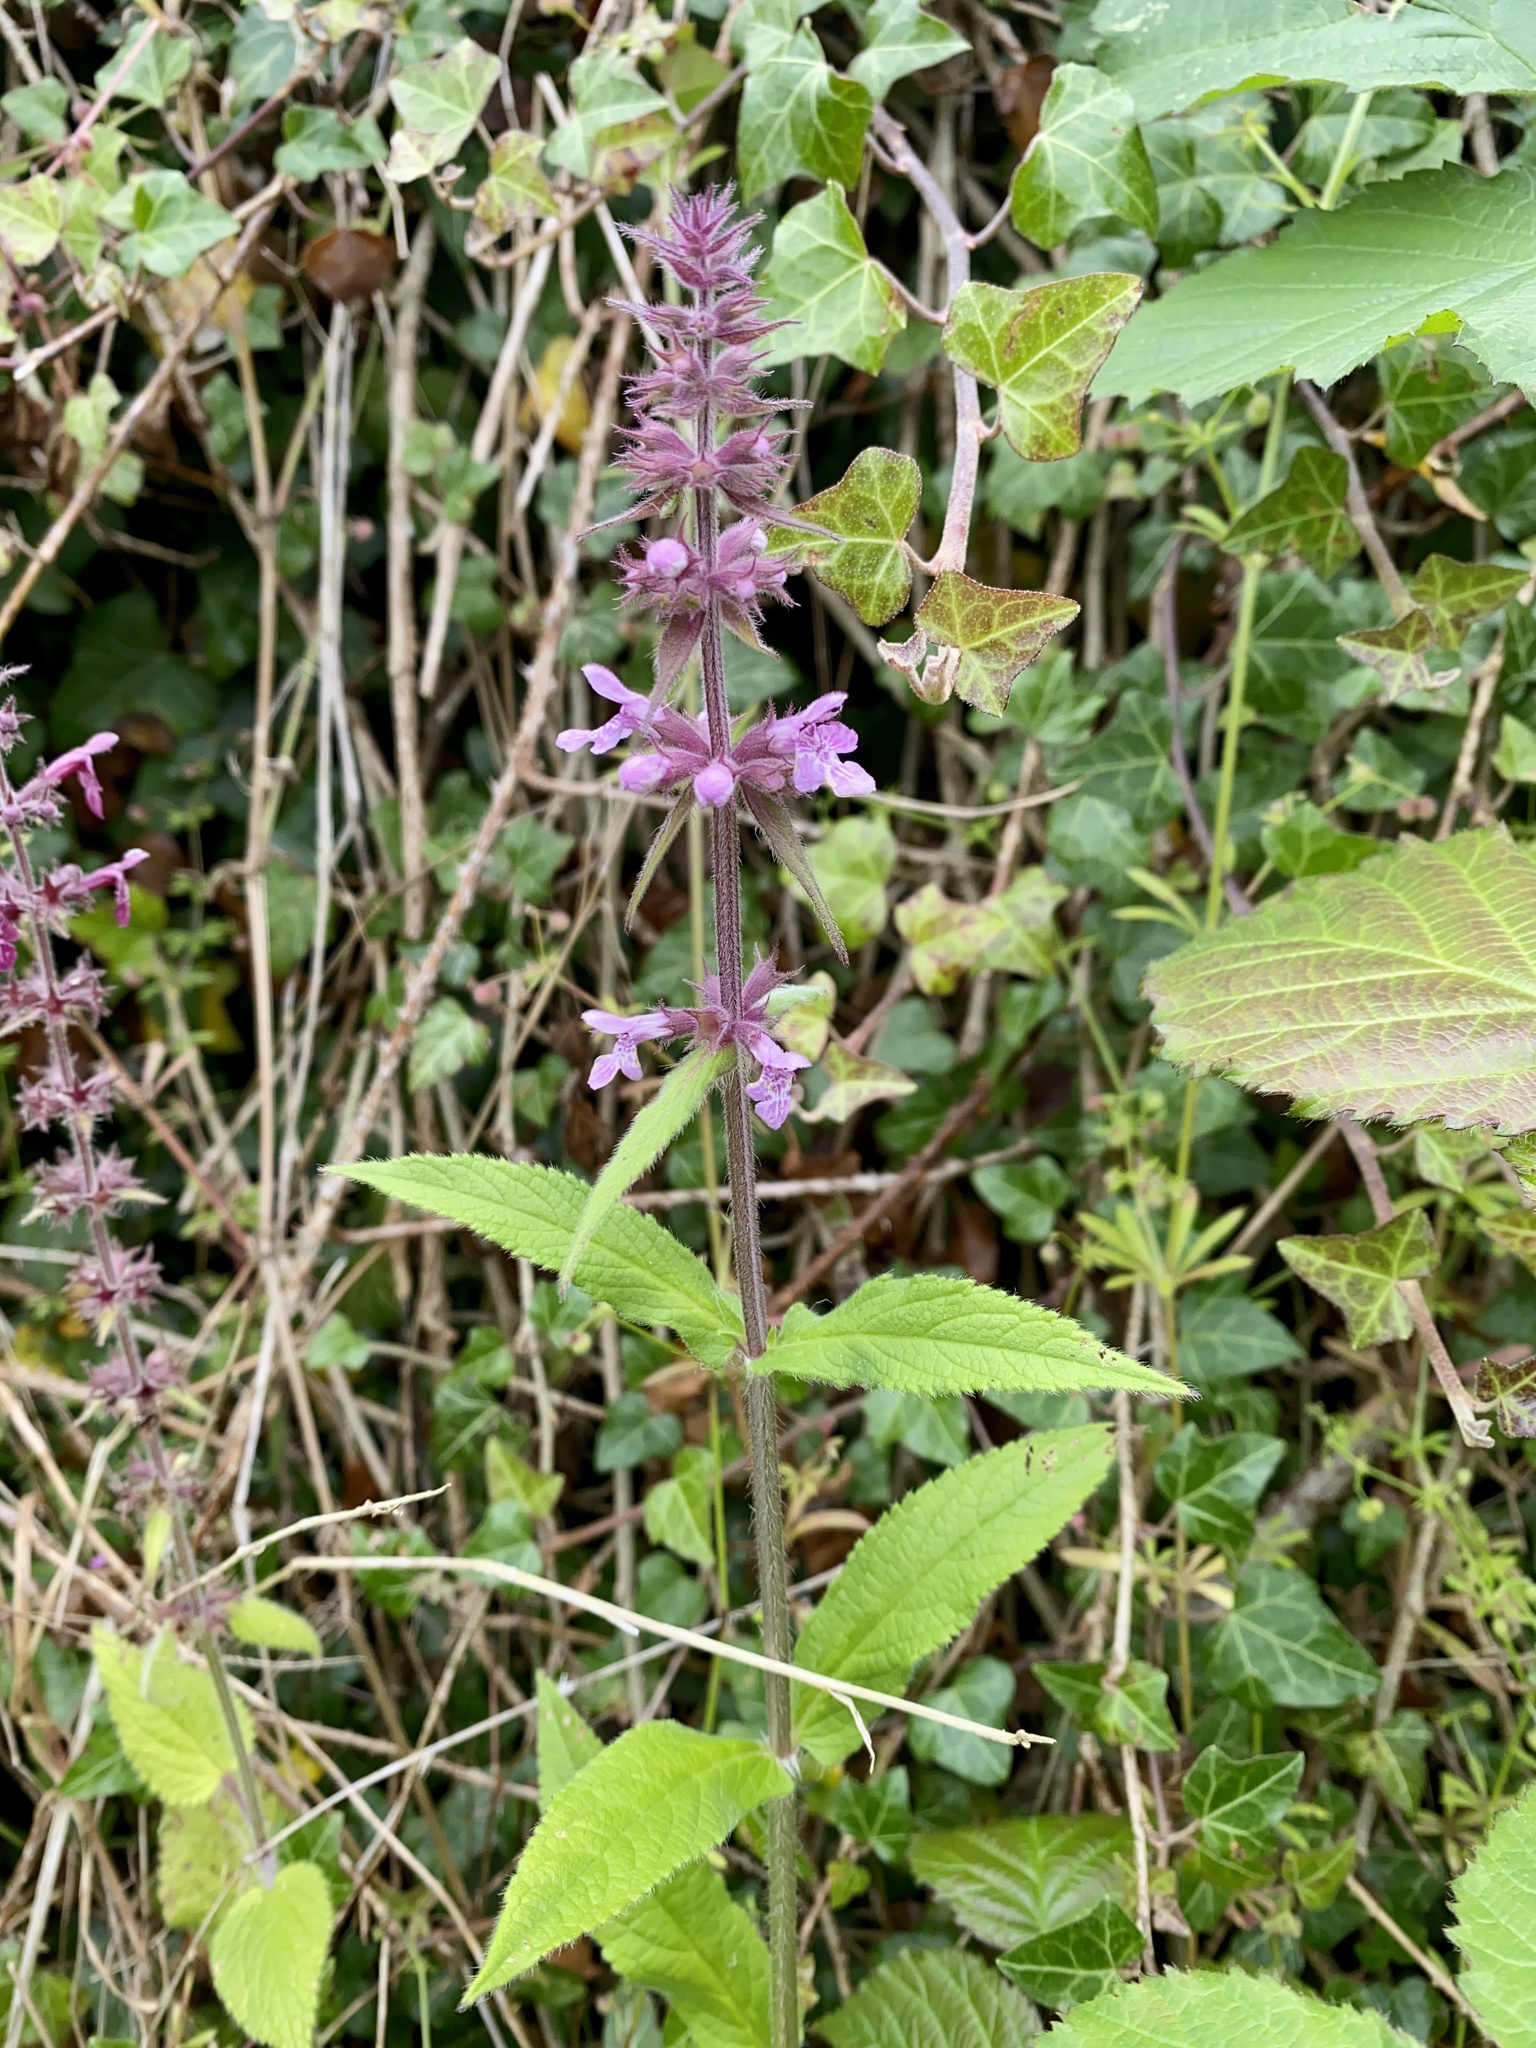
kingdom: Plantae
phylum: Tracheophyta
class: Magnoliopsida
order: Lamiales
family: Lamiaceae
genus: Stachys
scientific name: Stachys palustris
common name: Marsh woundwort
